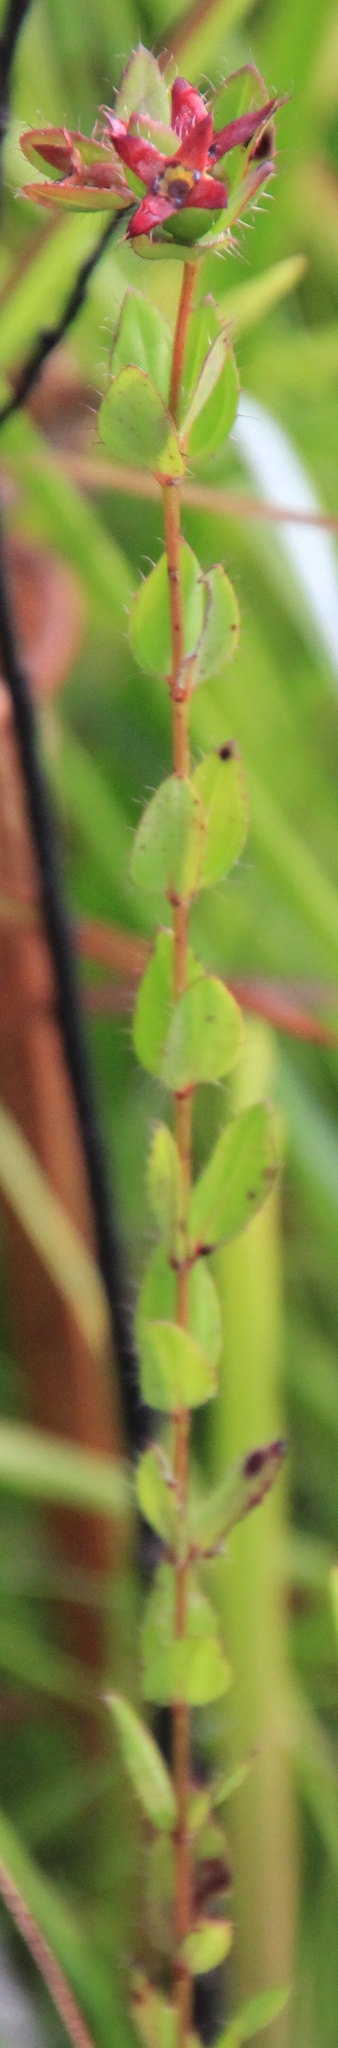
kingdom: Plantae
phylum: Tracheophyta
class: Magnoliopsida
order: Myrtales
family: Melastomataceae
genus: Rhexia
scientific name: Rhexia petiolata
